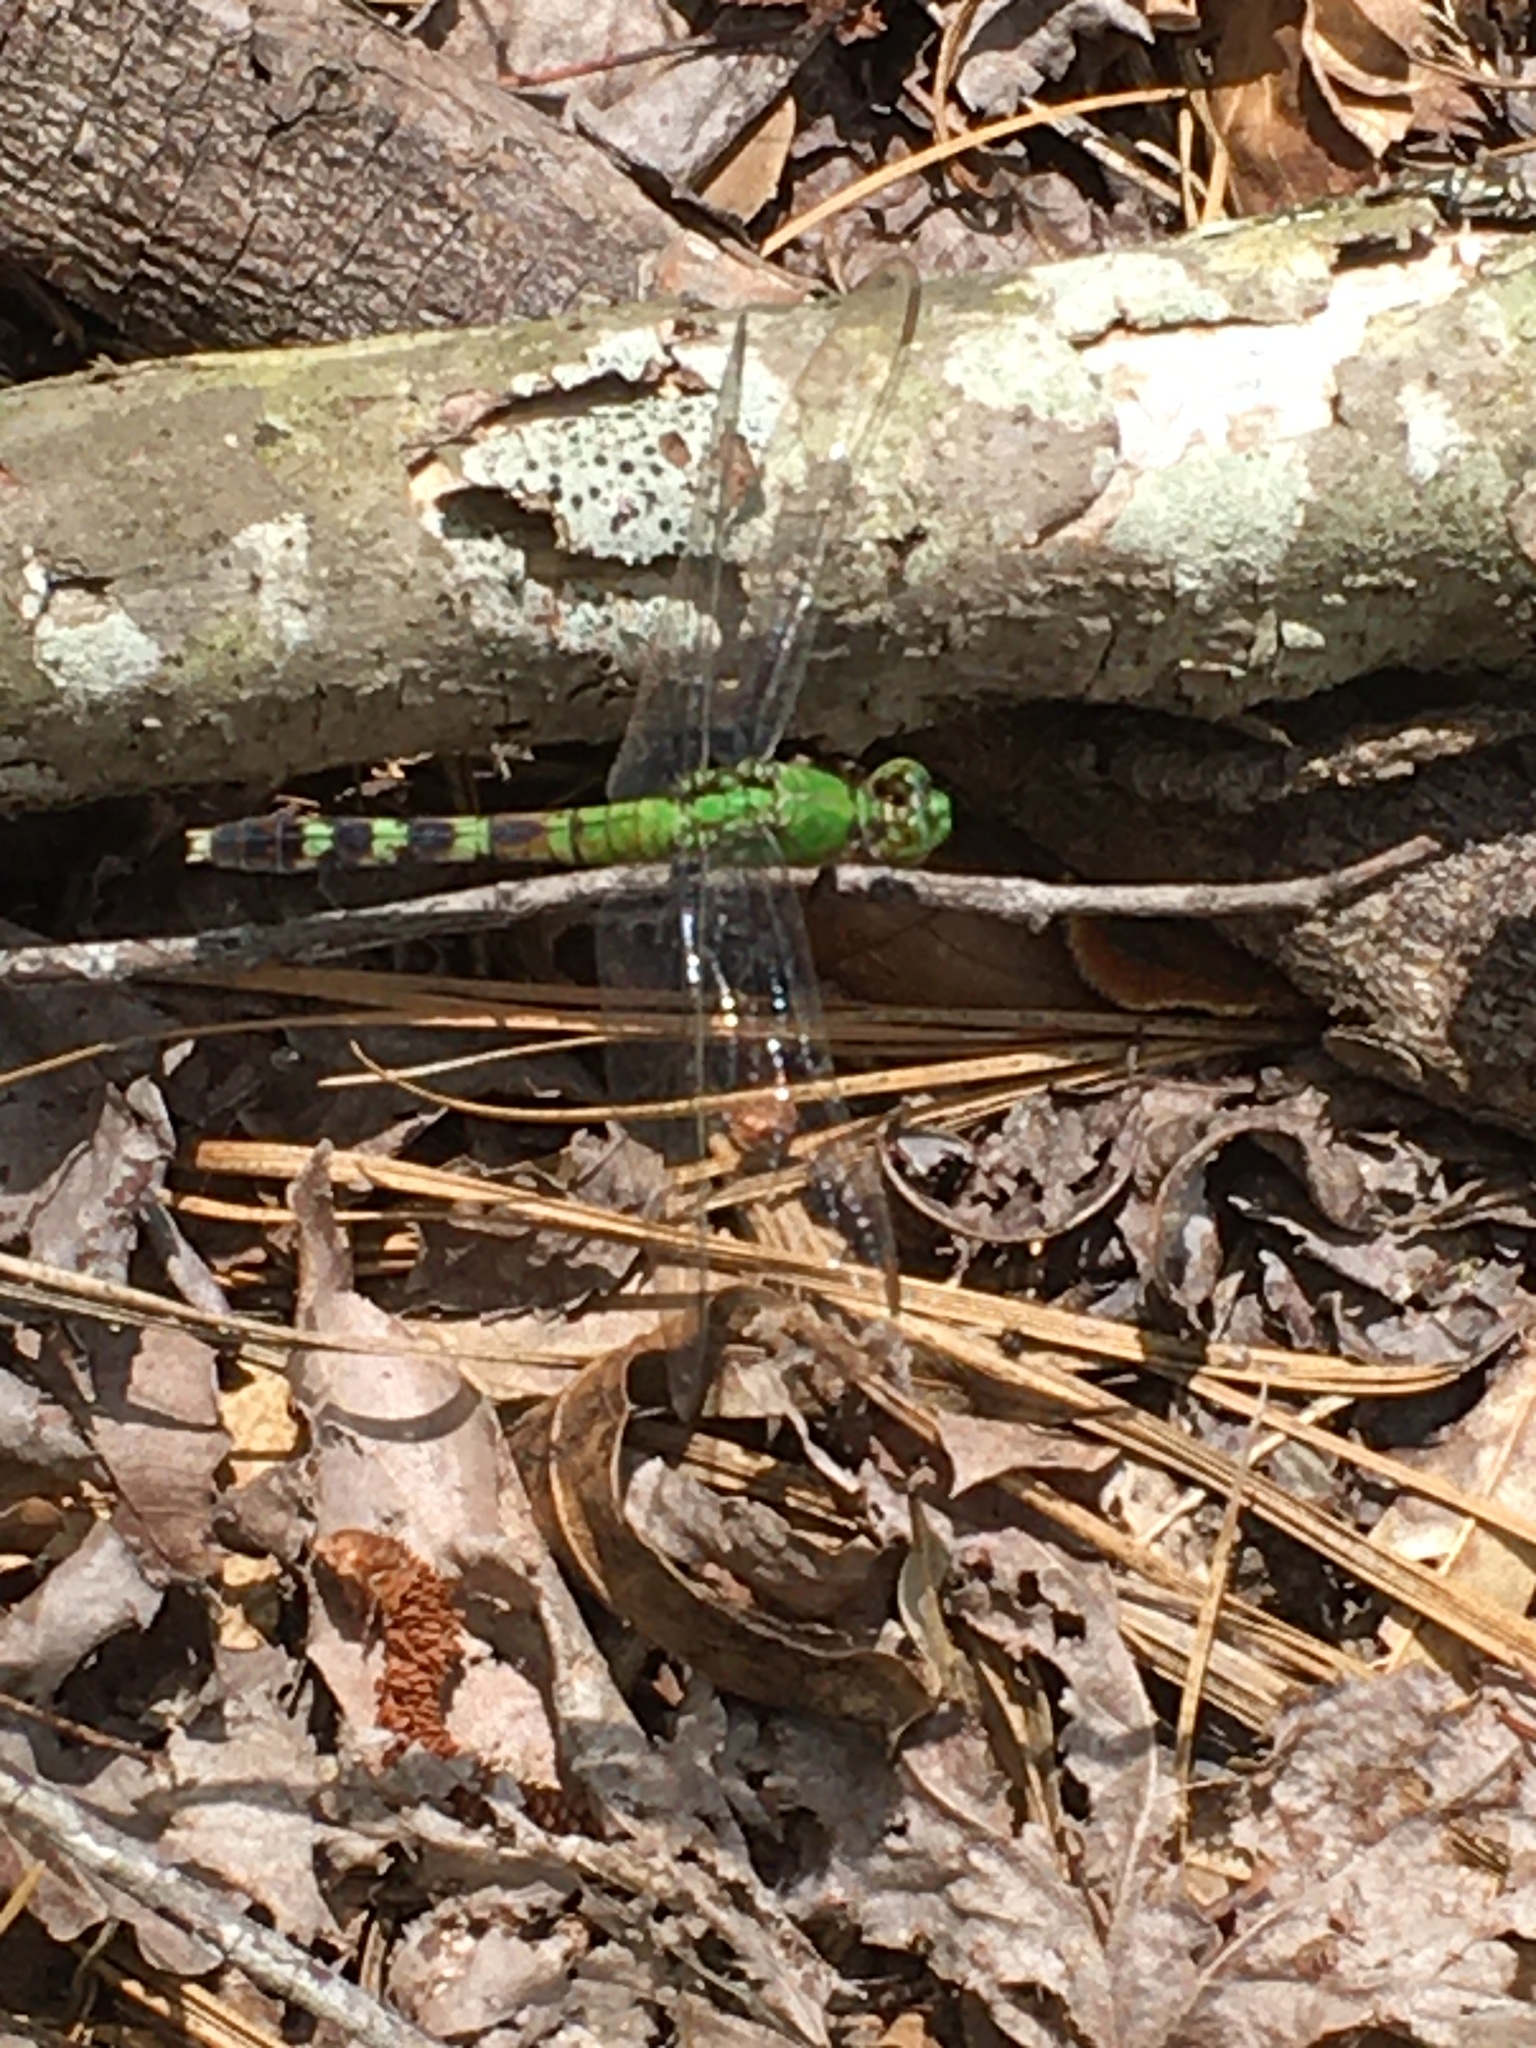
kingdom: Animalia
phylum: Arthropoda
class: Insecta
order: Odonata
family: Libellulidae
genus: Erythemis
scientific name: Erythemis simplicicollis
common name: Eastern pondhawk
